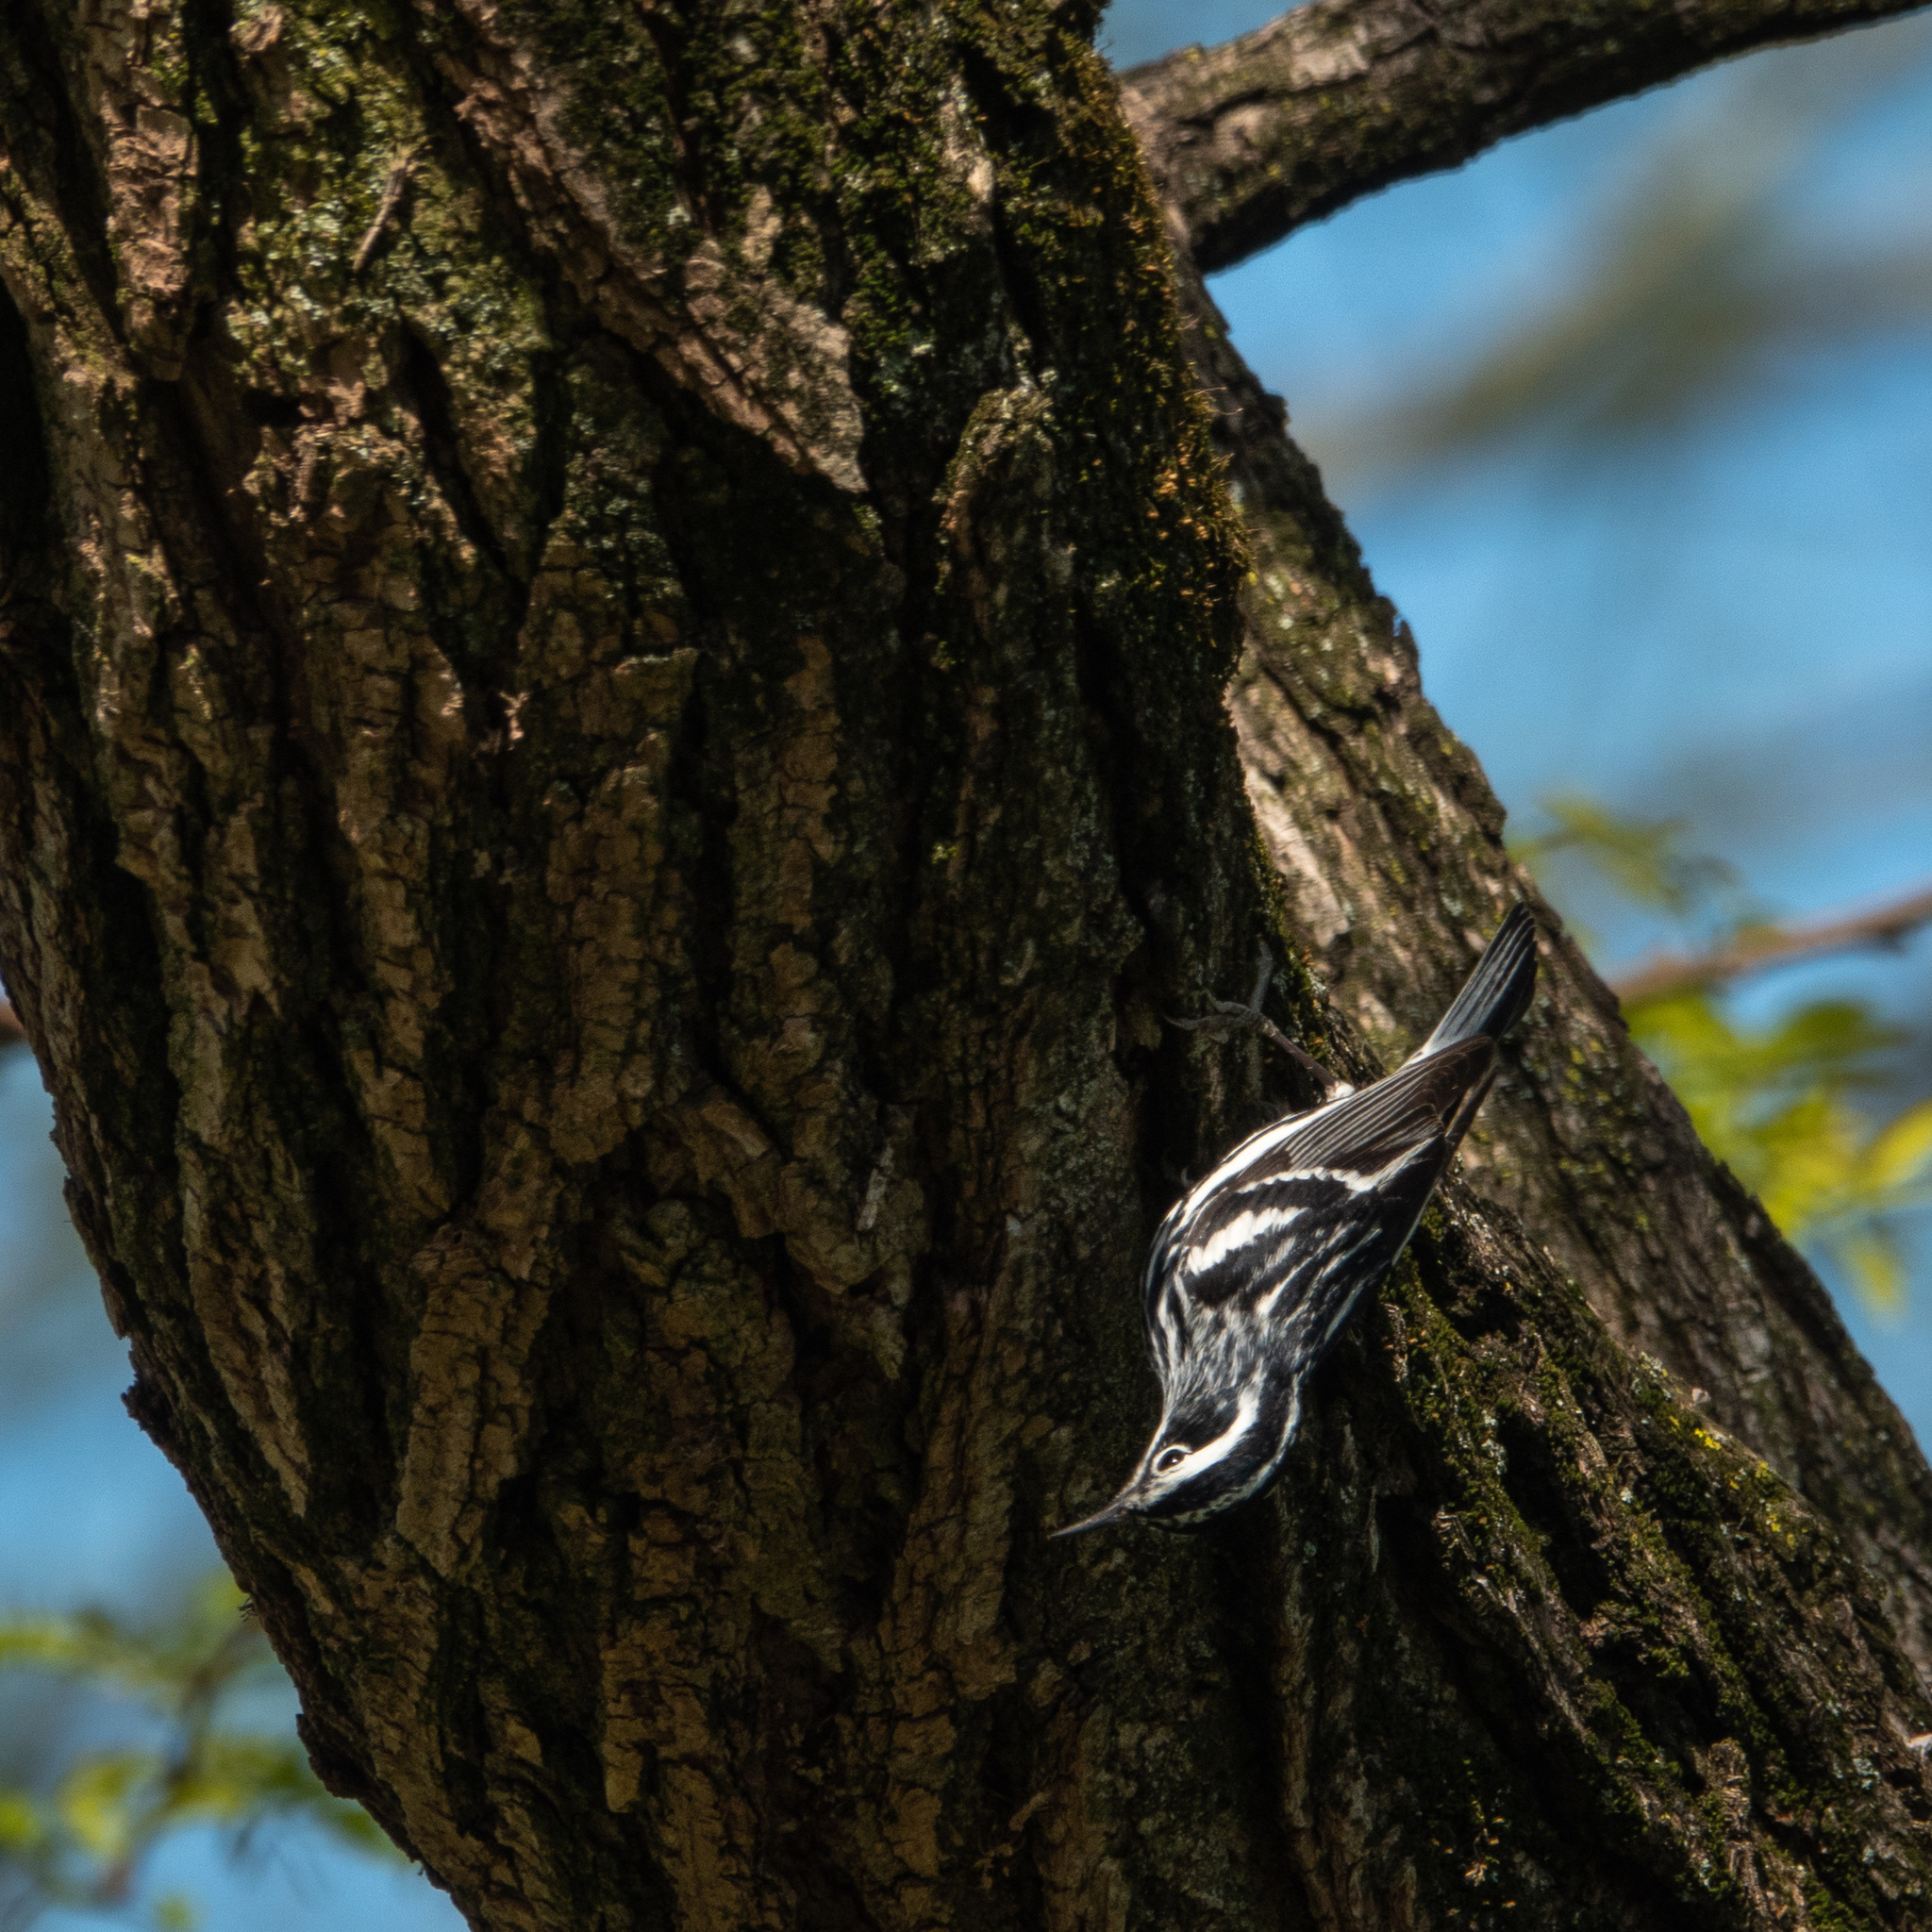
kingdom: Animalia
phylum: Chordata
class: Aves
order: Passeriformes
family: Parulidae
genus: Mniotilta
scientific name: Mniotilta varia
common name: Black-and-white warbler
